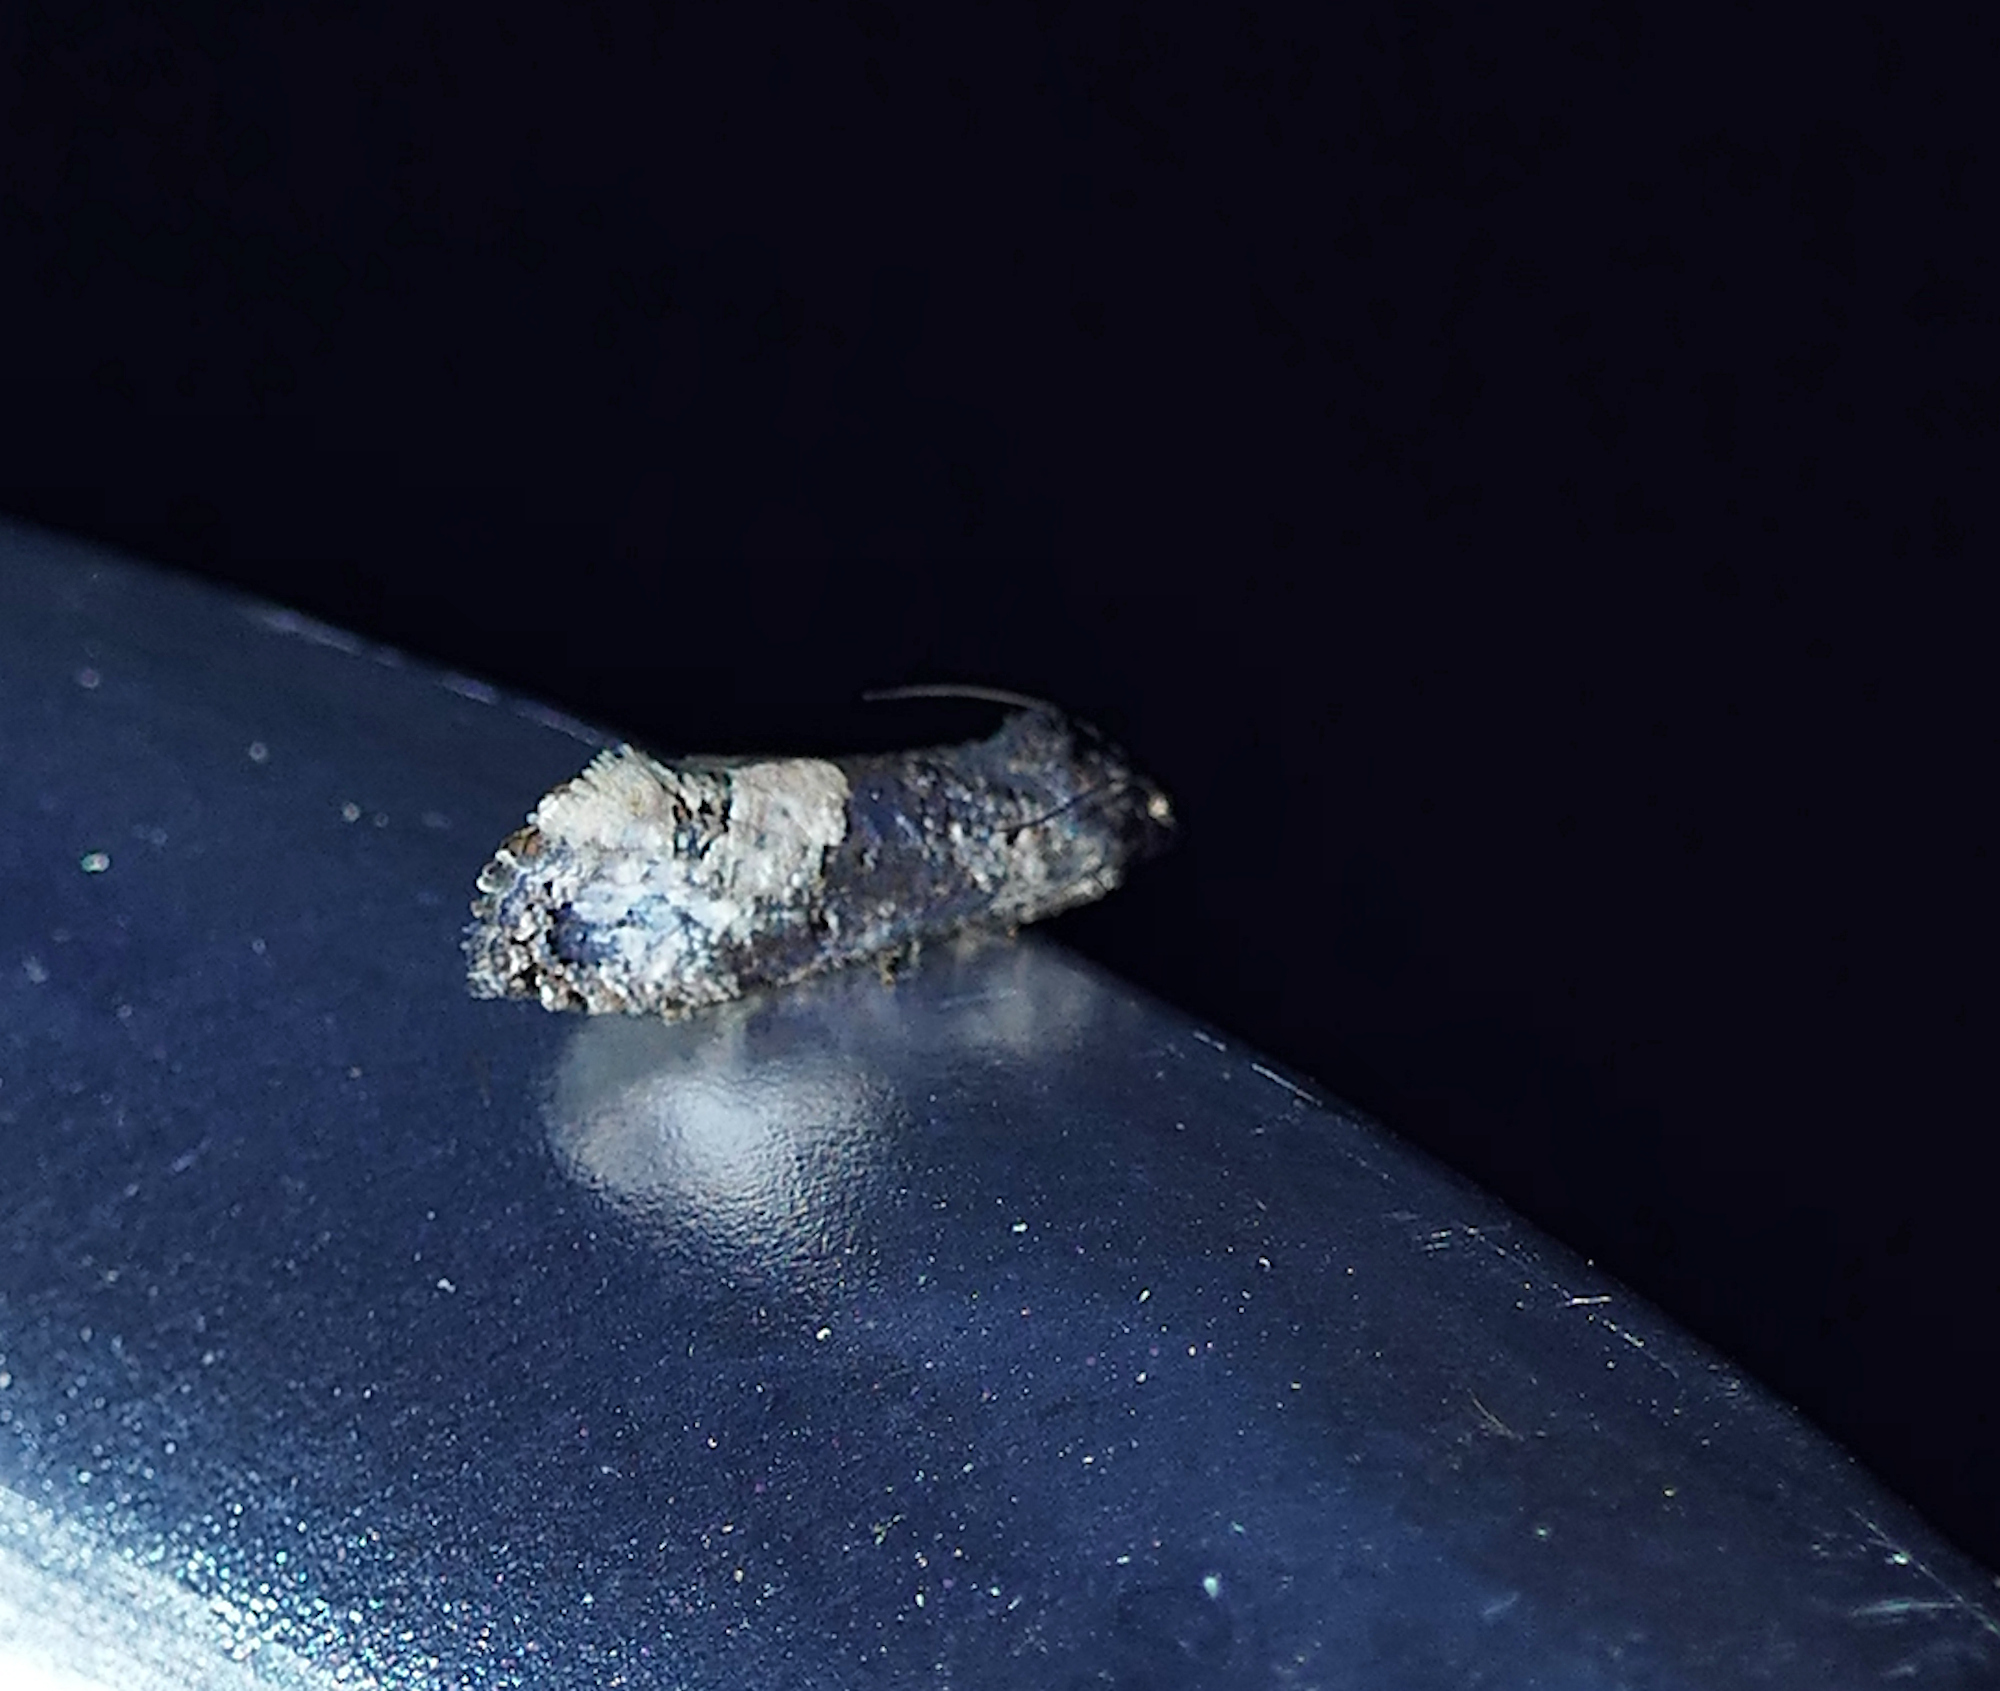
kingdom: Animalia
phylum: Arthropoda
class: Insecta
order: Lepidoptera
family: Tortricidae
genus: Ecdytolopha
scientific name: Ecdytolopha occidentana
